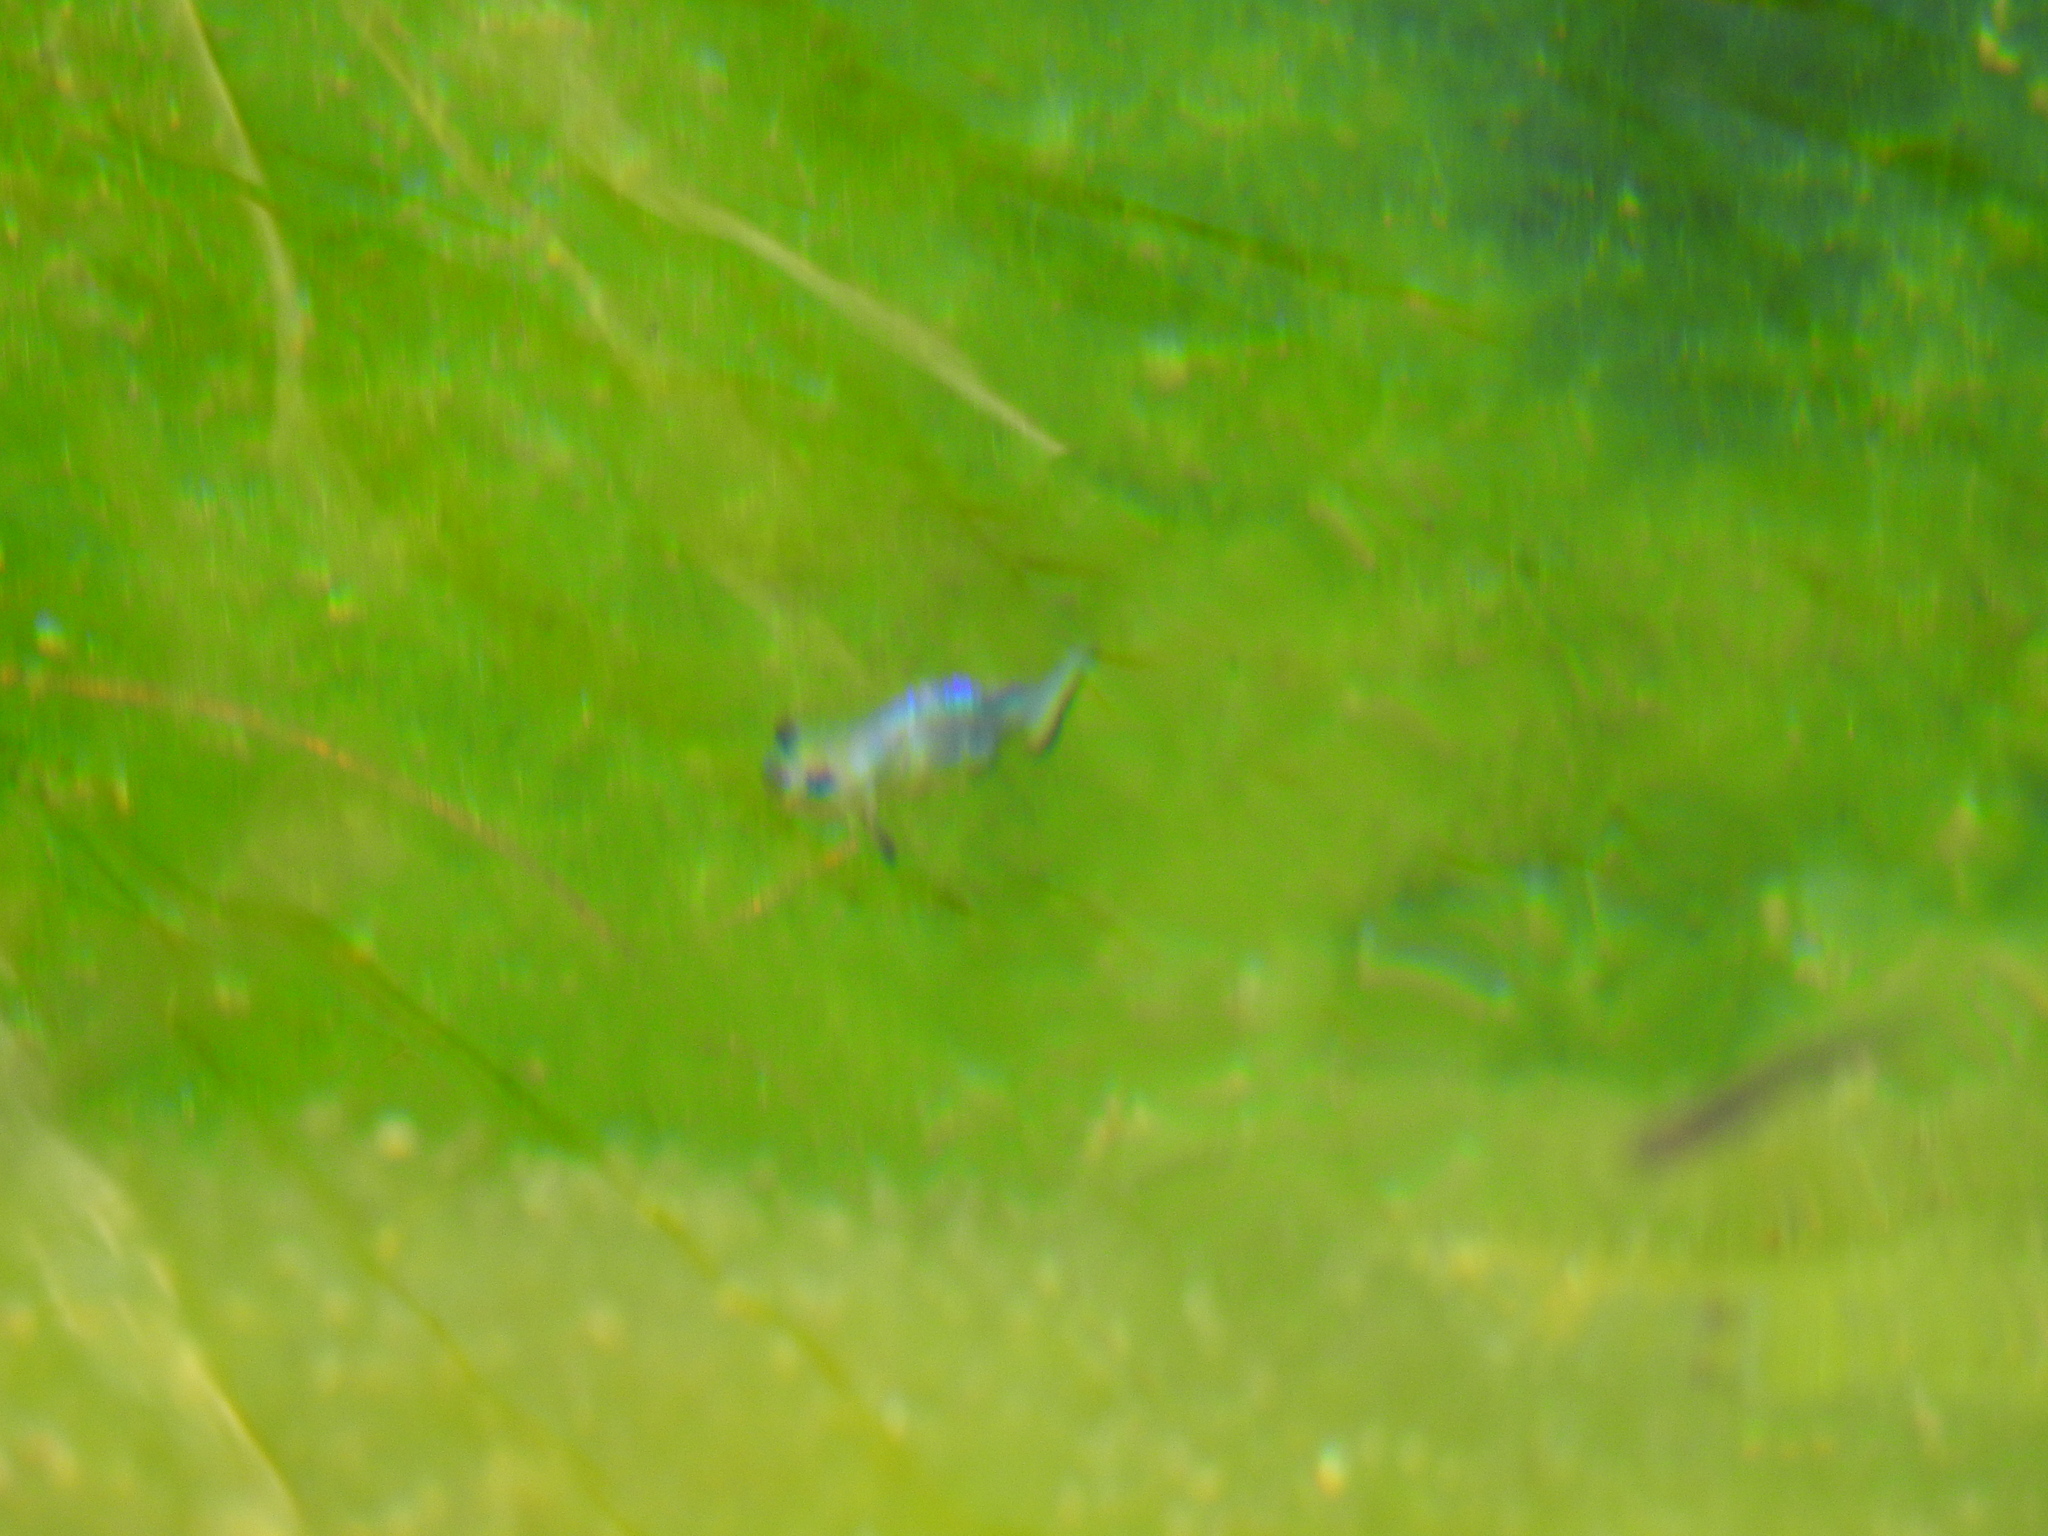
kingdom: Animalia
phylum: Chordata
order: Cyprinodontiformes
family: Cyprinodontidae
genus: Cyprinodon
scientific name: Cyprinodon nevadensis
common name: Amargosa pupfish
